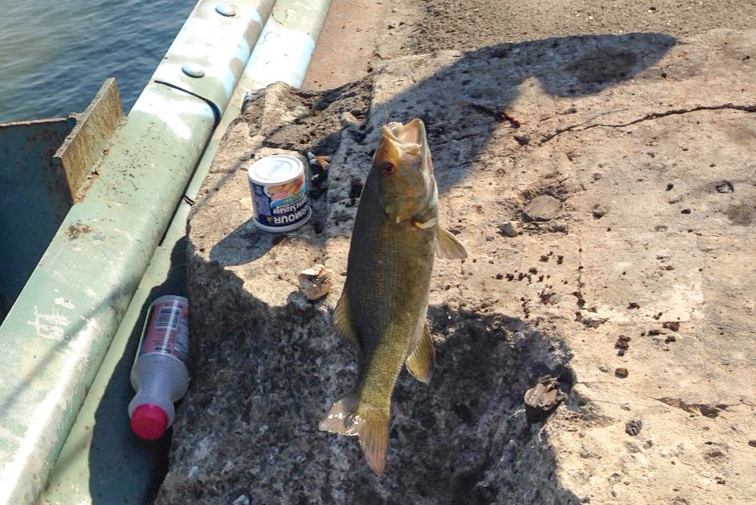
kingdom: Animalia
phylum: Chordata
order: Perciformes
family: Centrarchidae
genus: Micropterus
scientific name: Micropterus dolomieu
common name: Smallmouth bass
